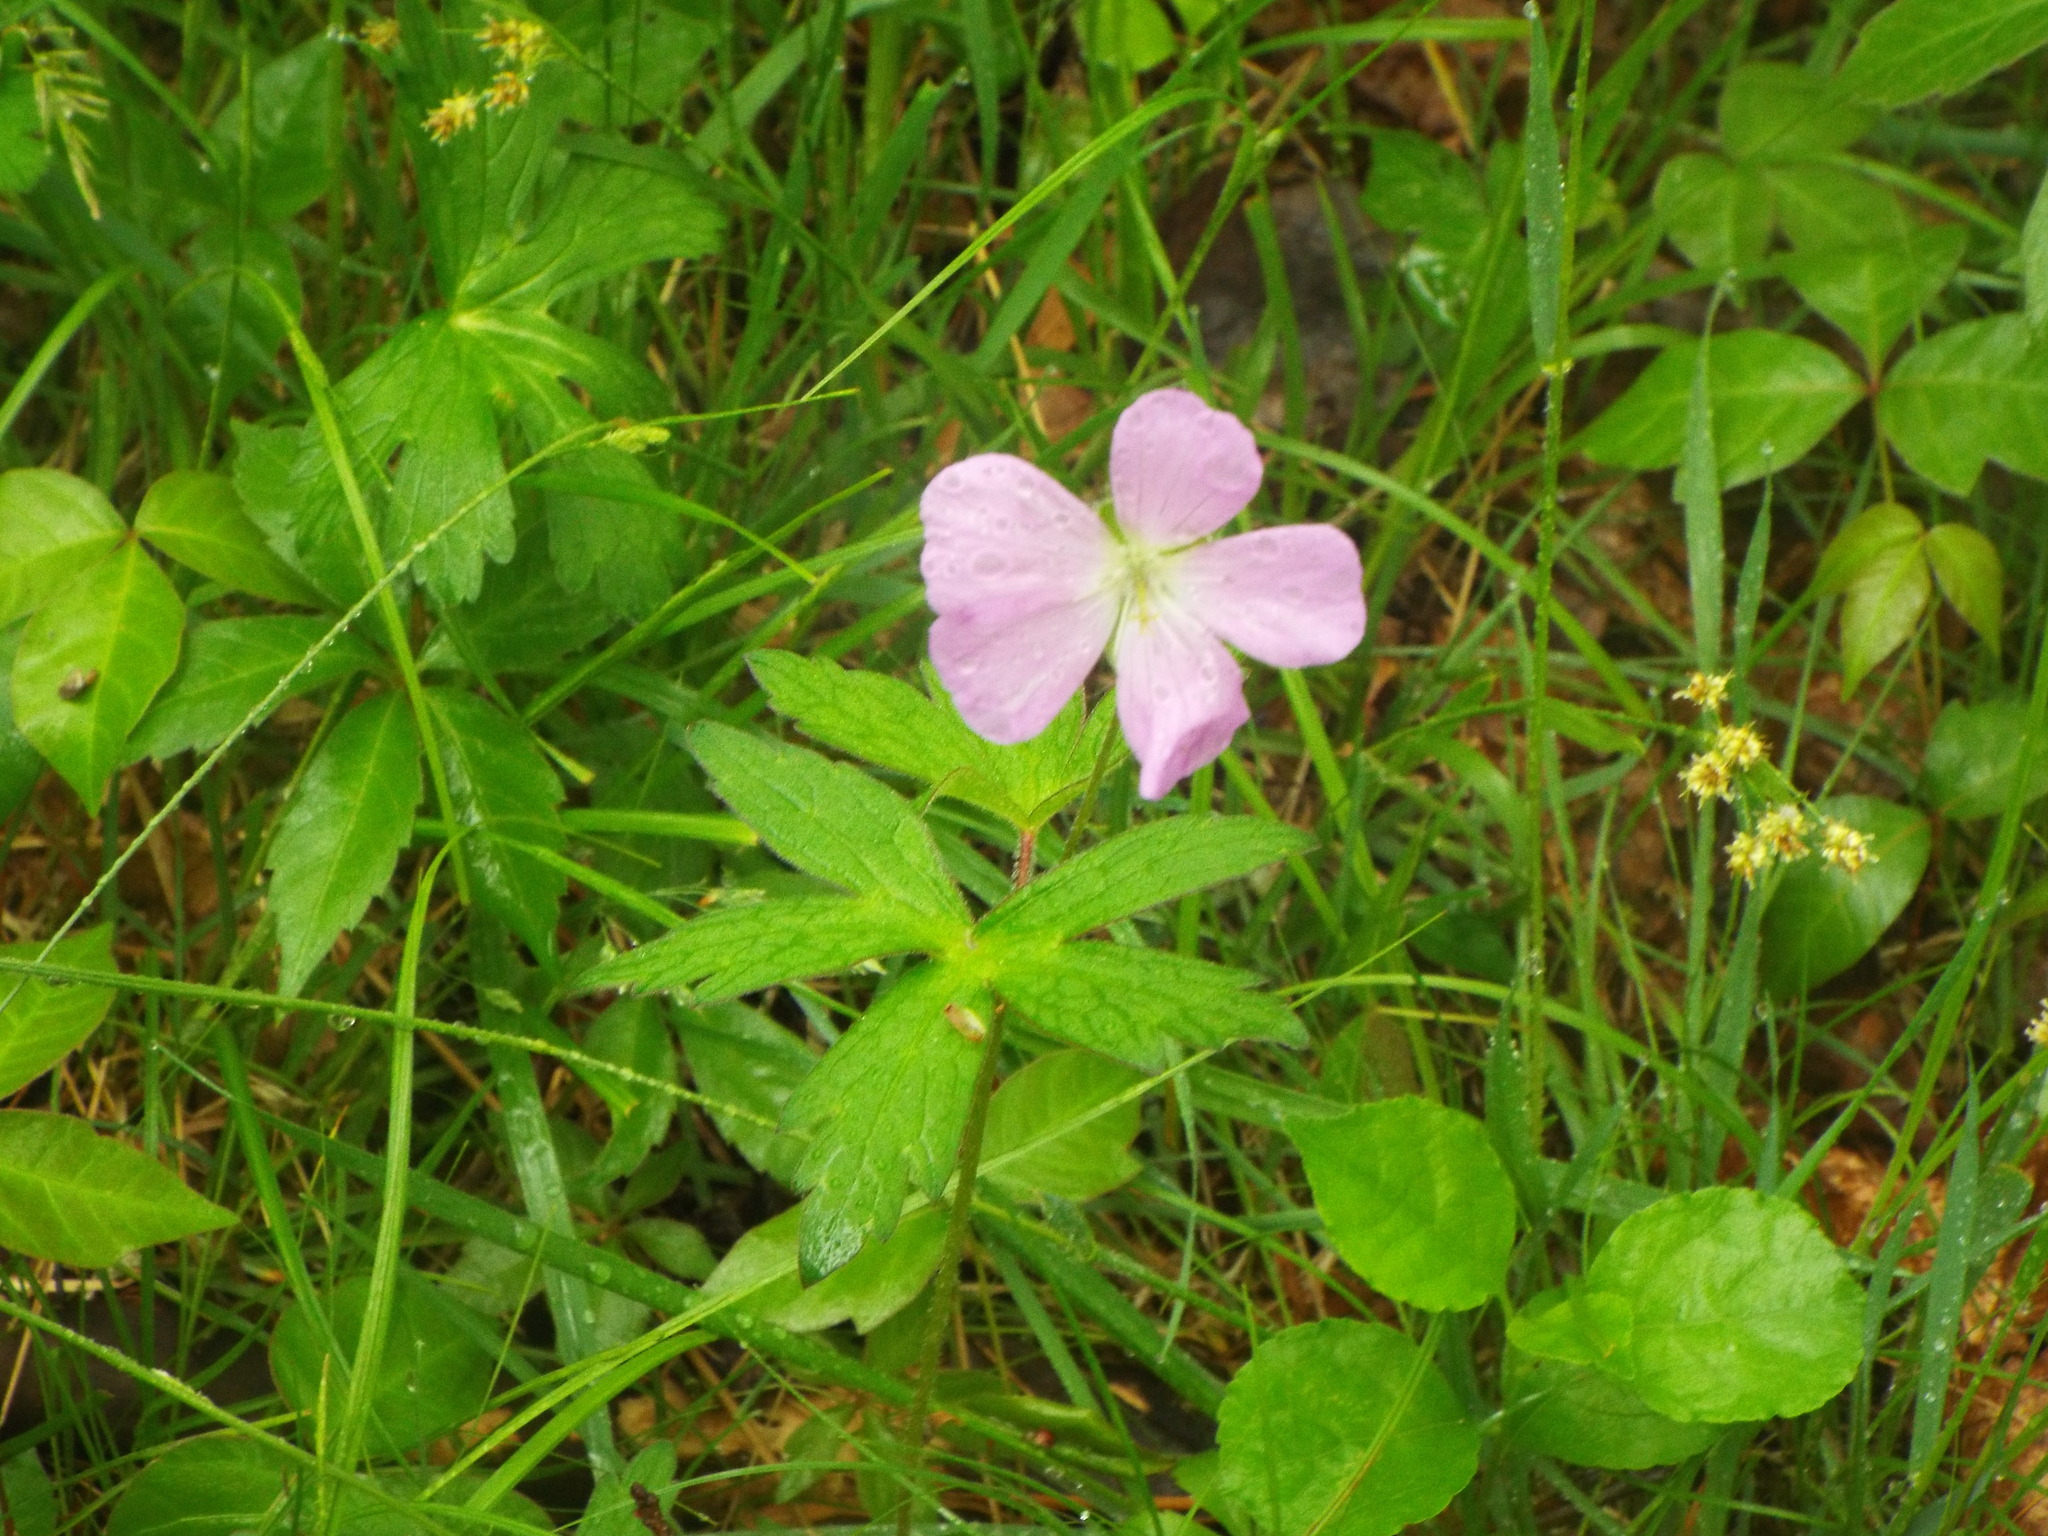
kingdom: Plantae
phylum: Tracheophyta
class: Magnoliopsida
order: Geraniales
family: Geraniaceae
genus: Geranium
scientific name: Geranium maculatum
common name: Spotted geranium
